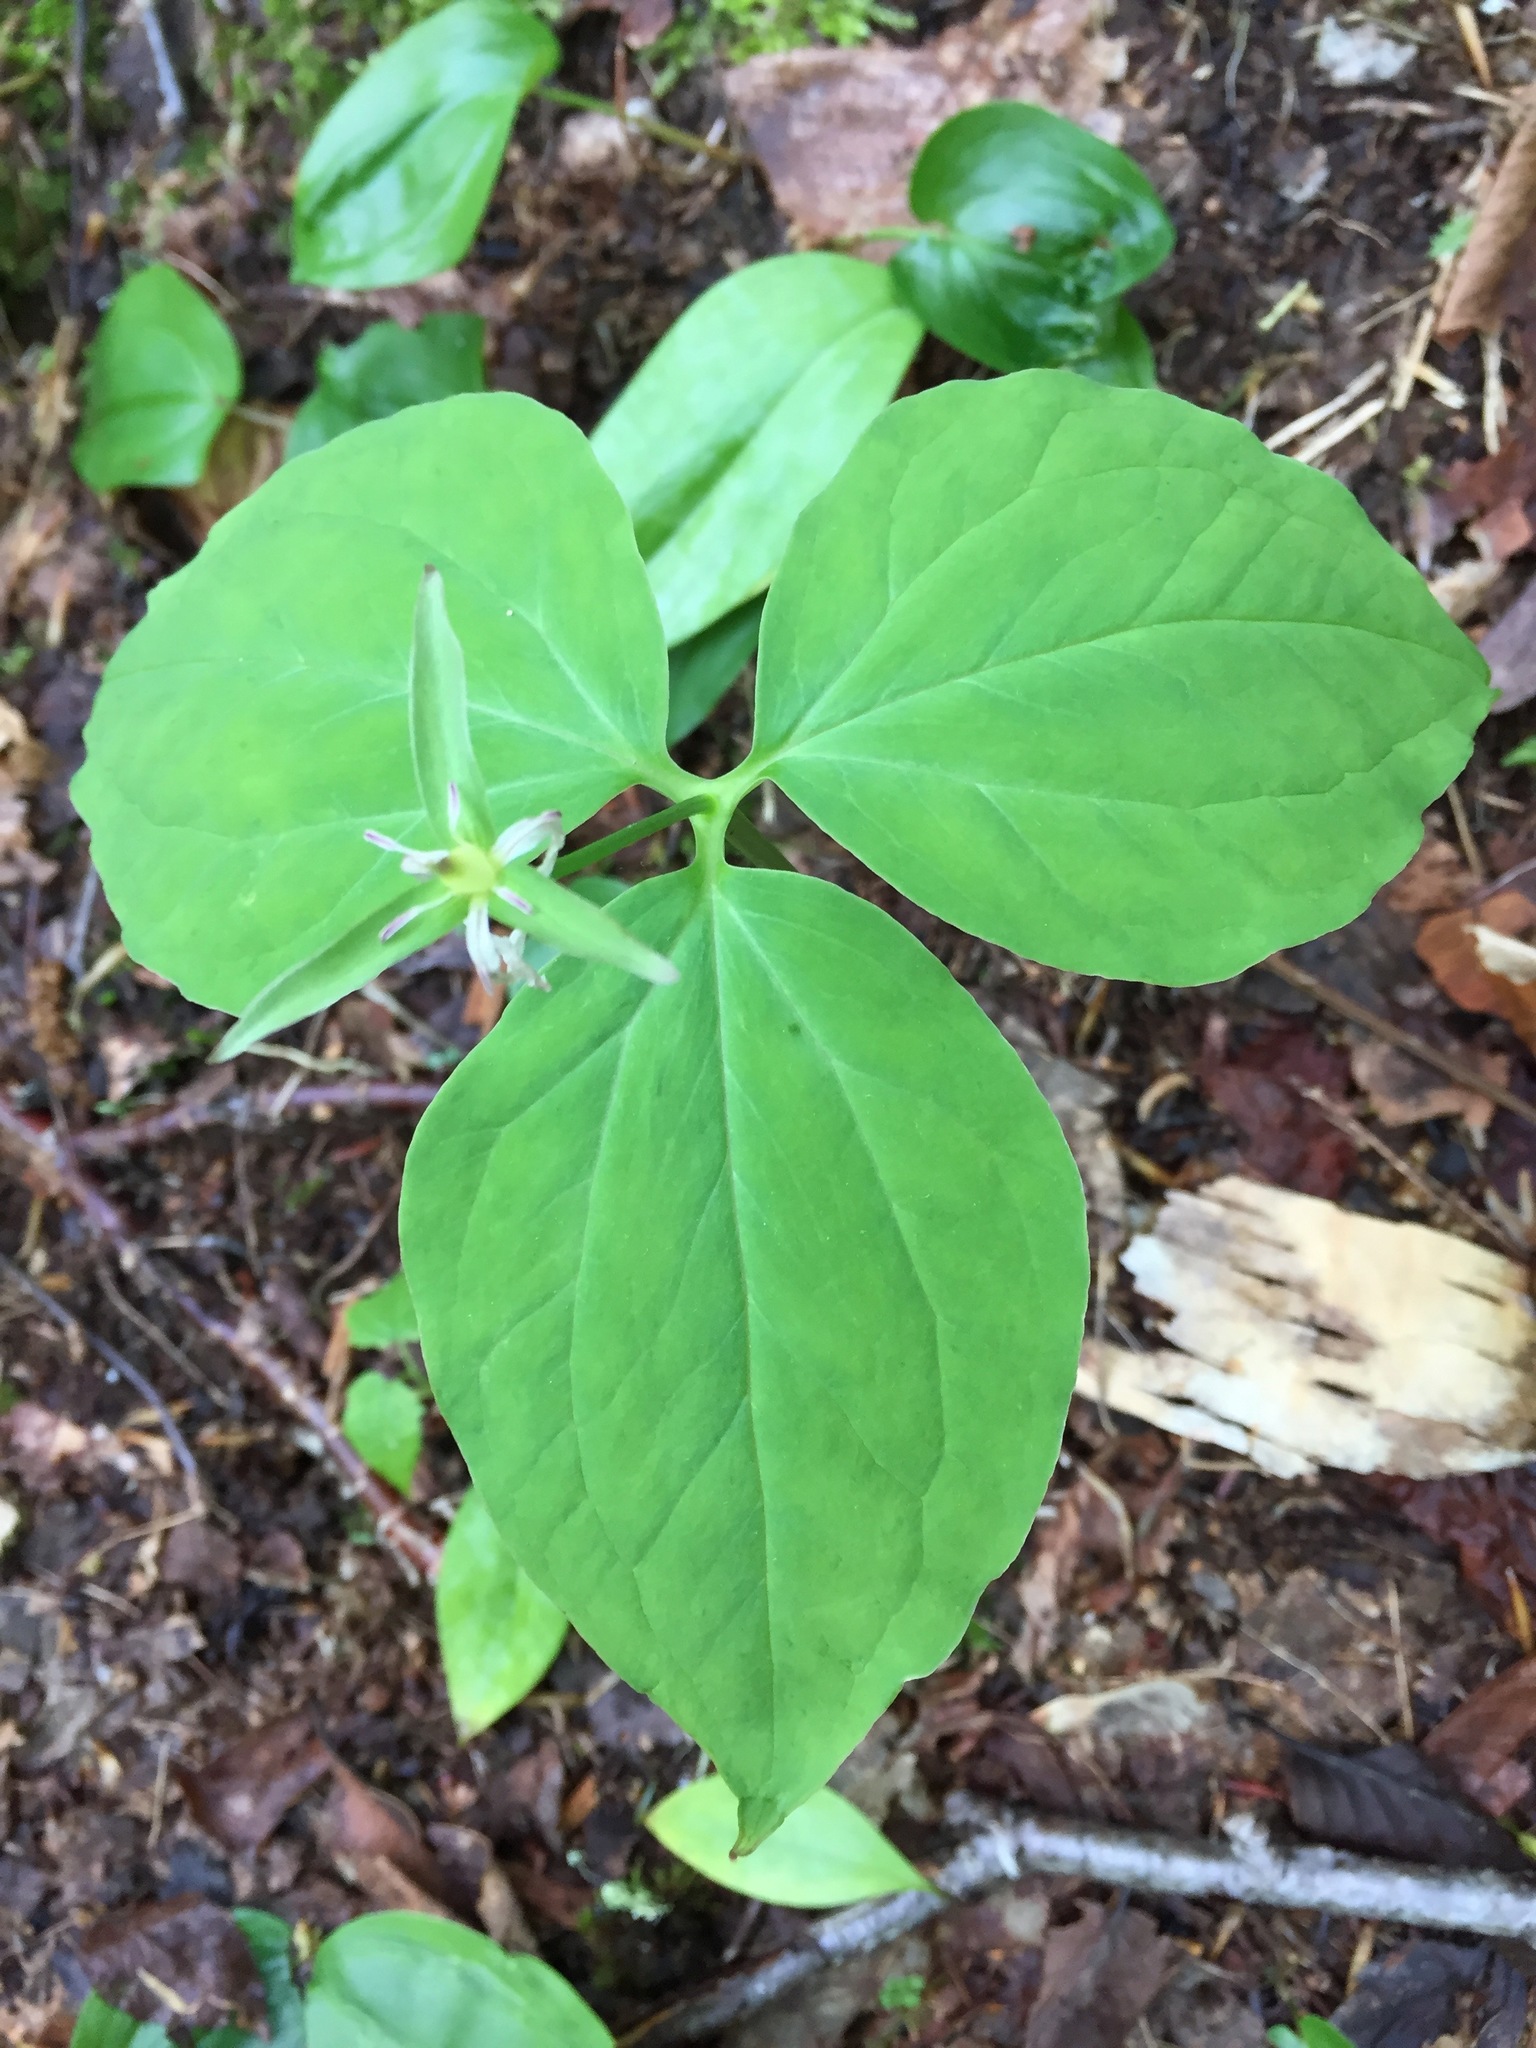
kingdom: Plantae
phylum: Tracheophyta
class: Liliopsida
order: Liliales
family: Melanthiaceae
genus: Trillium
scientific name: Trillium undulatum
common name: Paint trillium
